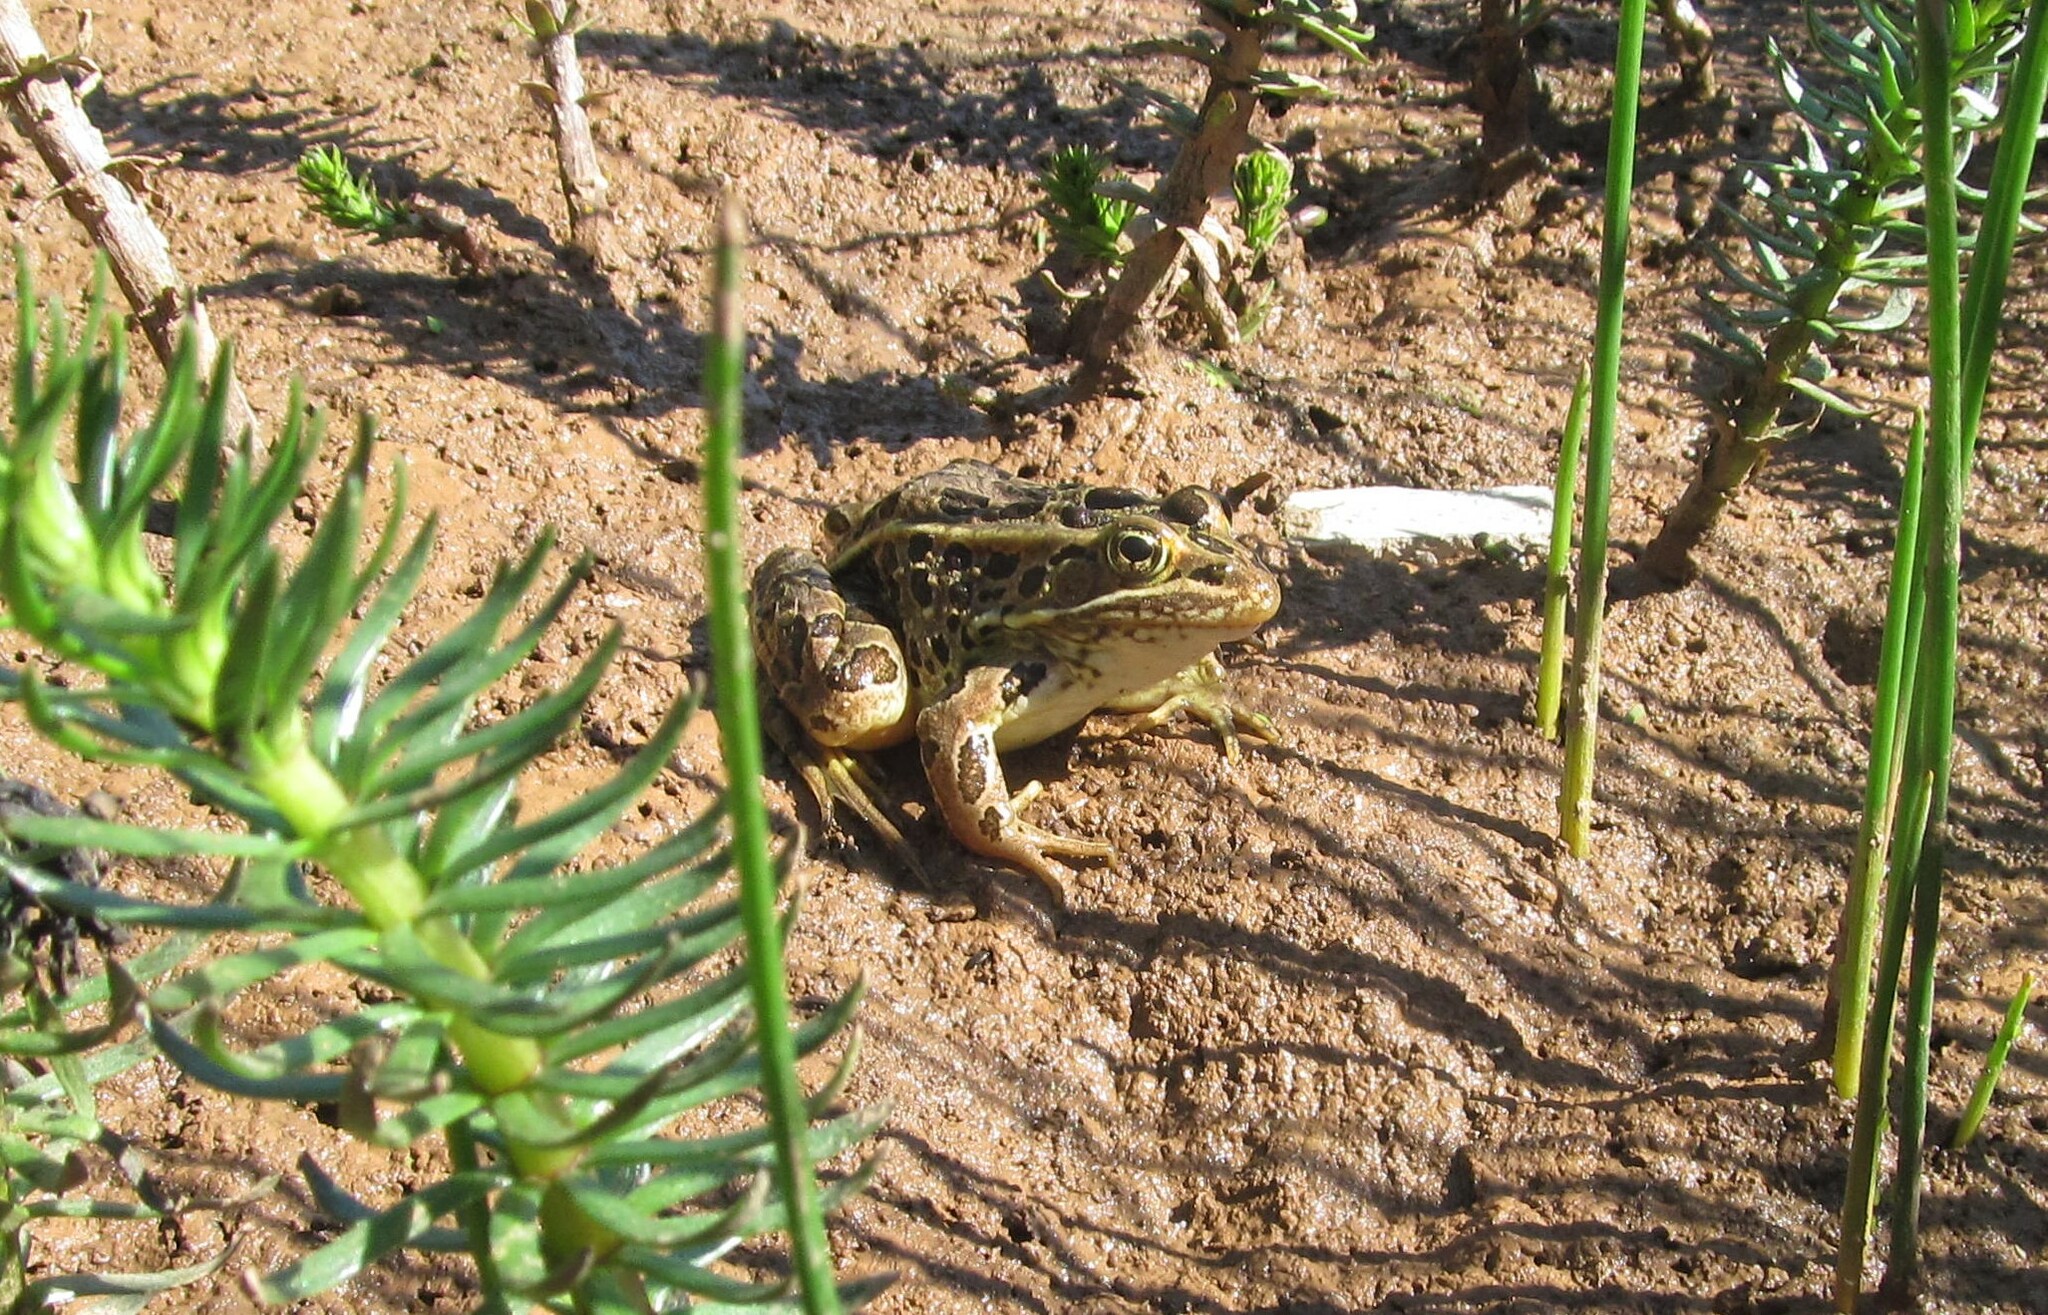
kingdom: Animalia
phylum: Chordata
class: Amphibia
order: Anura
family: Ranidae
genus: Lithobates
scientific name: Lithobates pipiens
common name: Northern leopard frog
